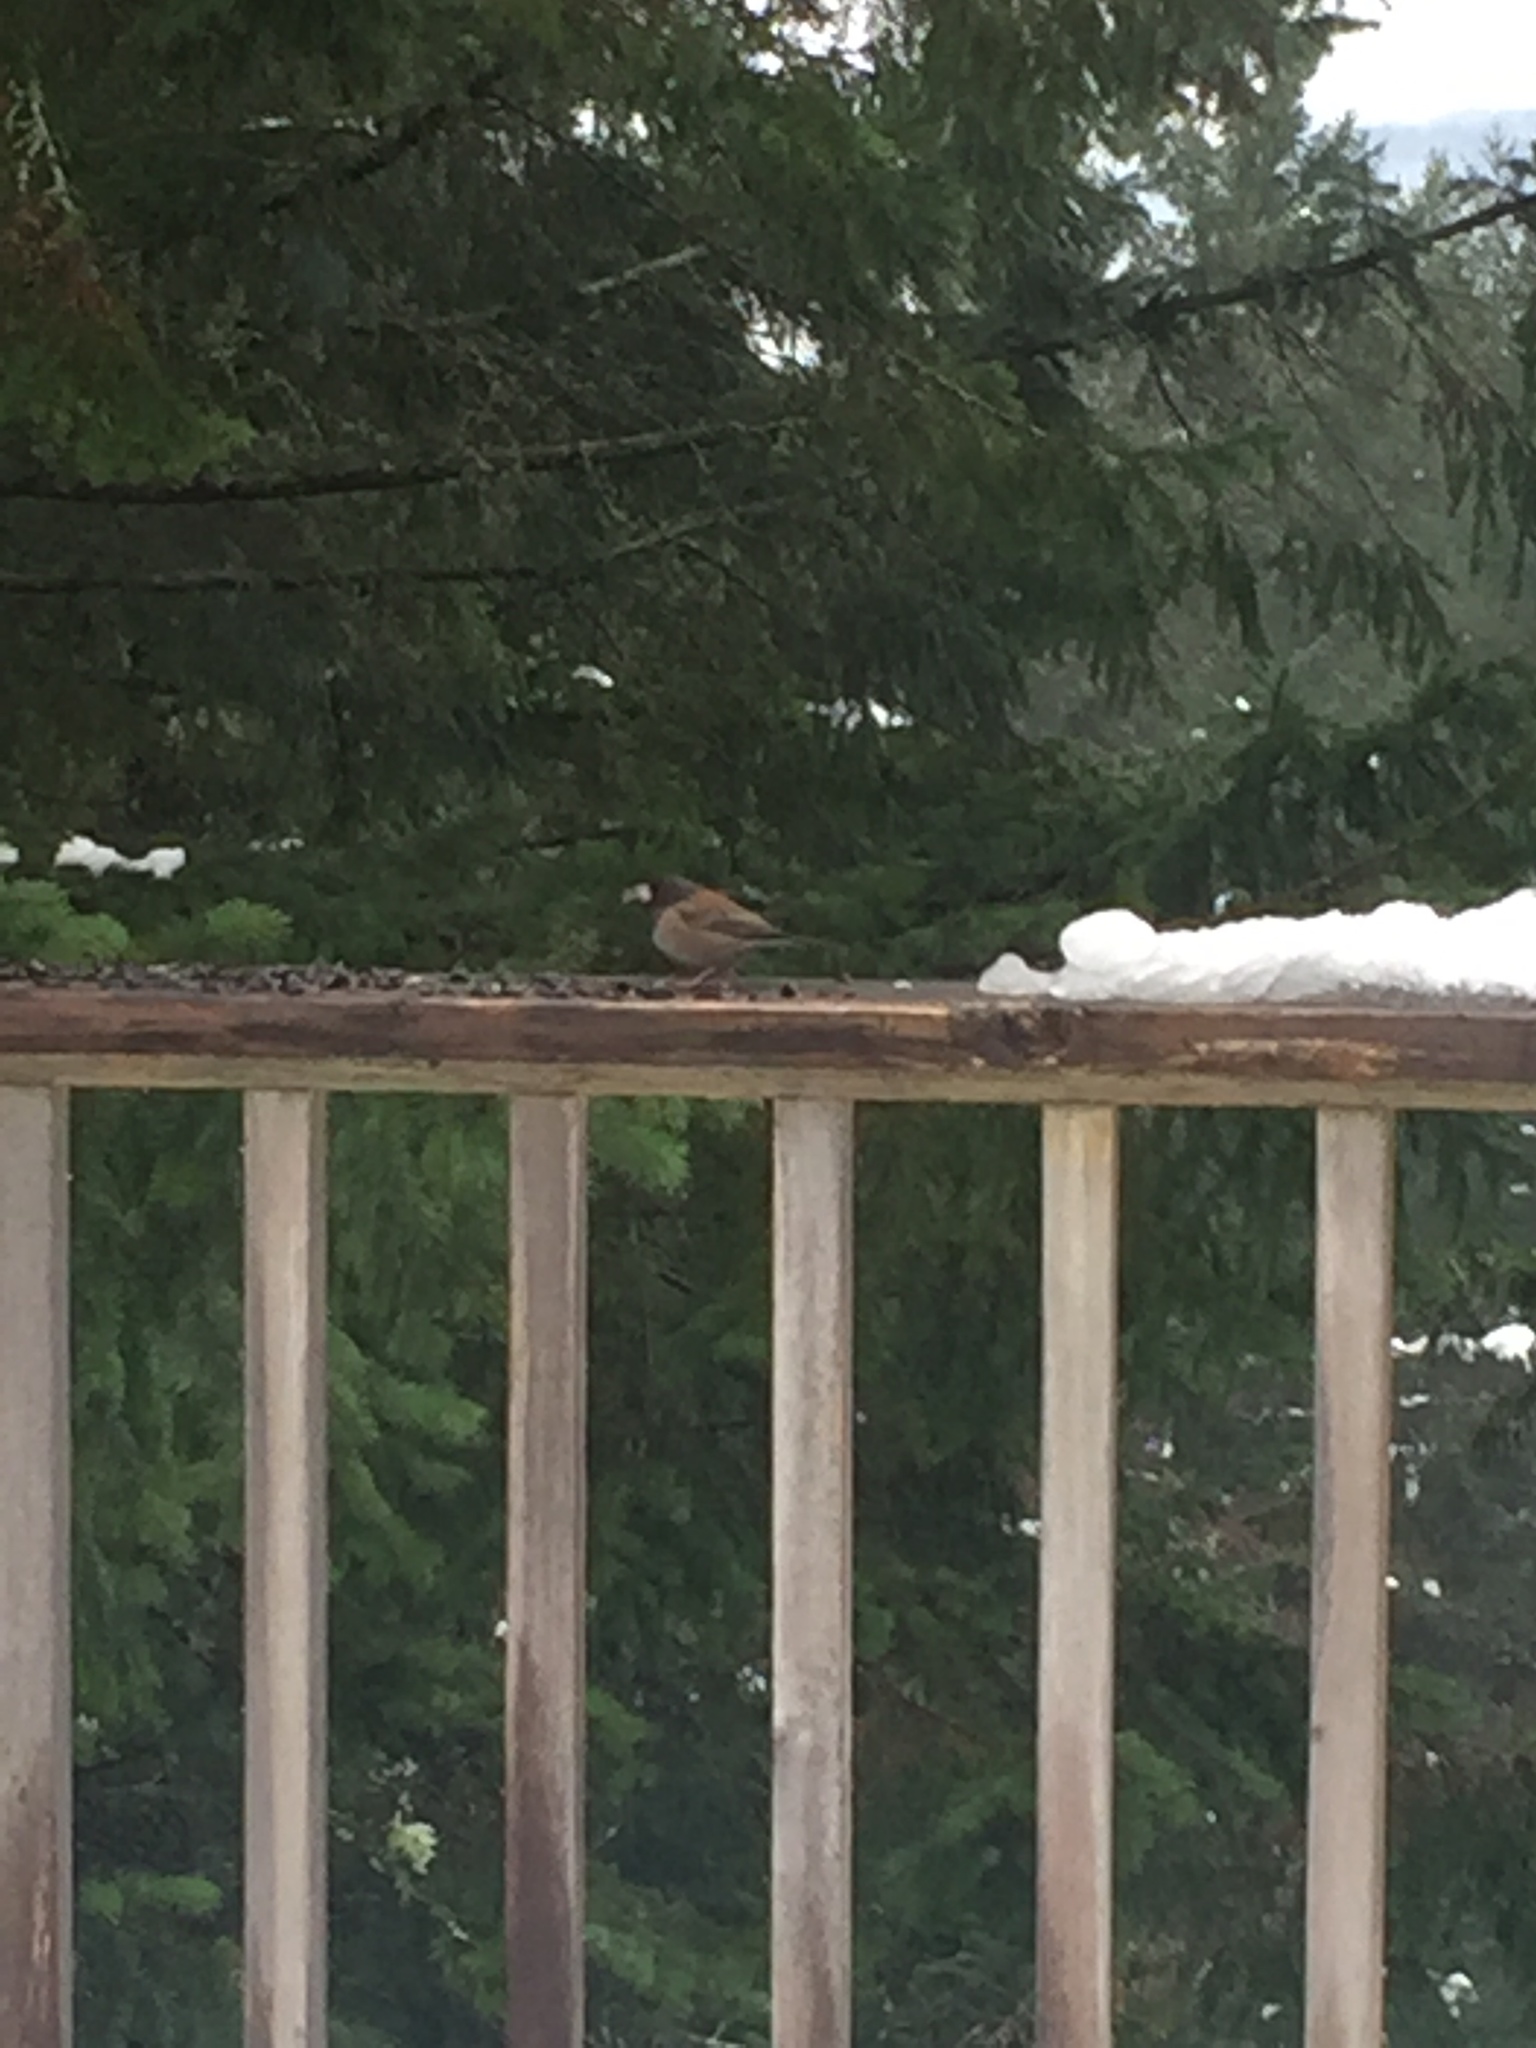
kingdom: Animalia
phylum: Chordata
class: Aves
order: Passeriformes
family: Passerellidae
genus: Junco
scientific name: Junco hyemalis
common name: Dark-eyed junco
